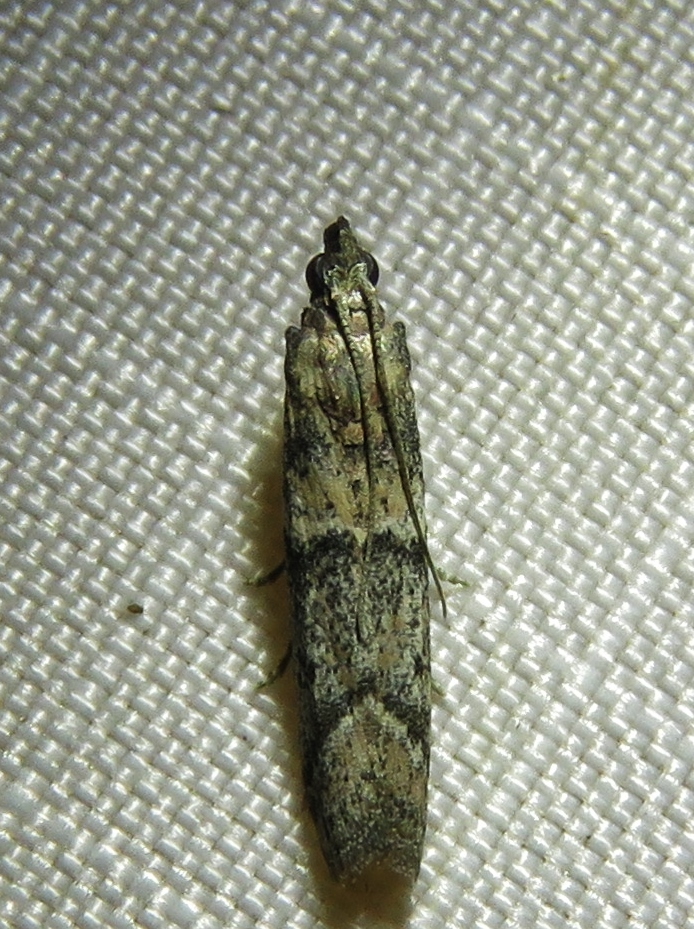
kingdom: Animalia
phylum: Arthropoda
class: Insecta
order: Lepidoptera
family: Pyralidae
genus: Ephestiodes
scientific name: Ephestiodes gilvescentella
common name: Moth
